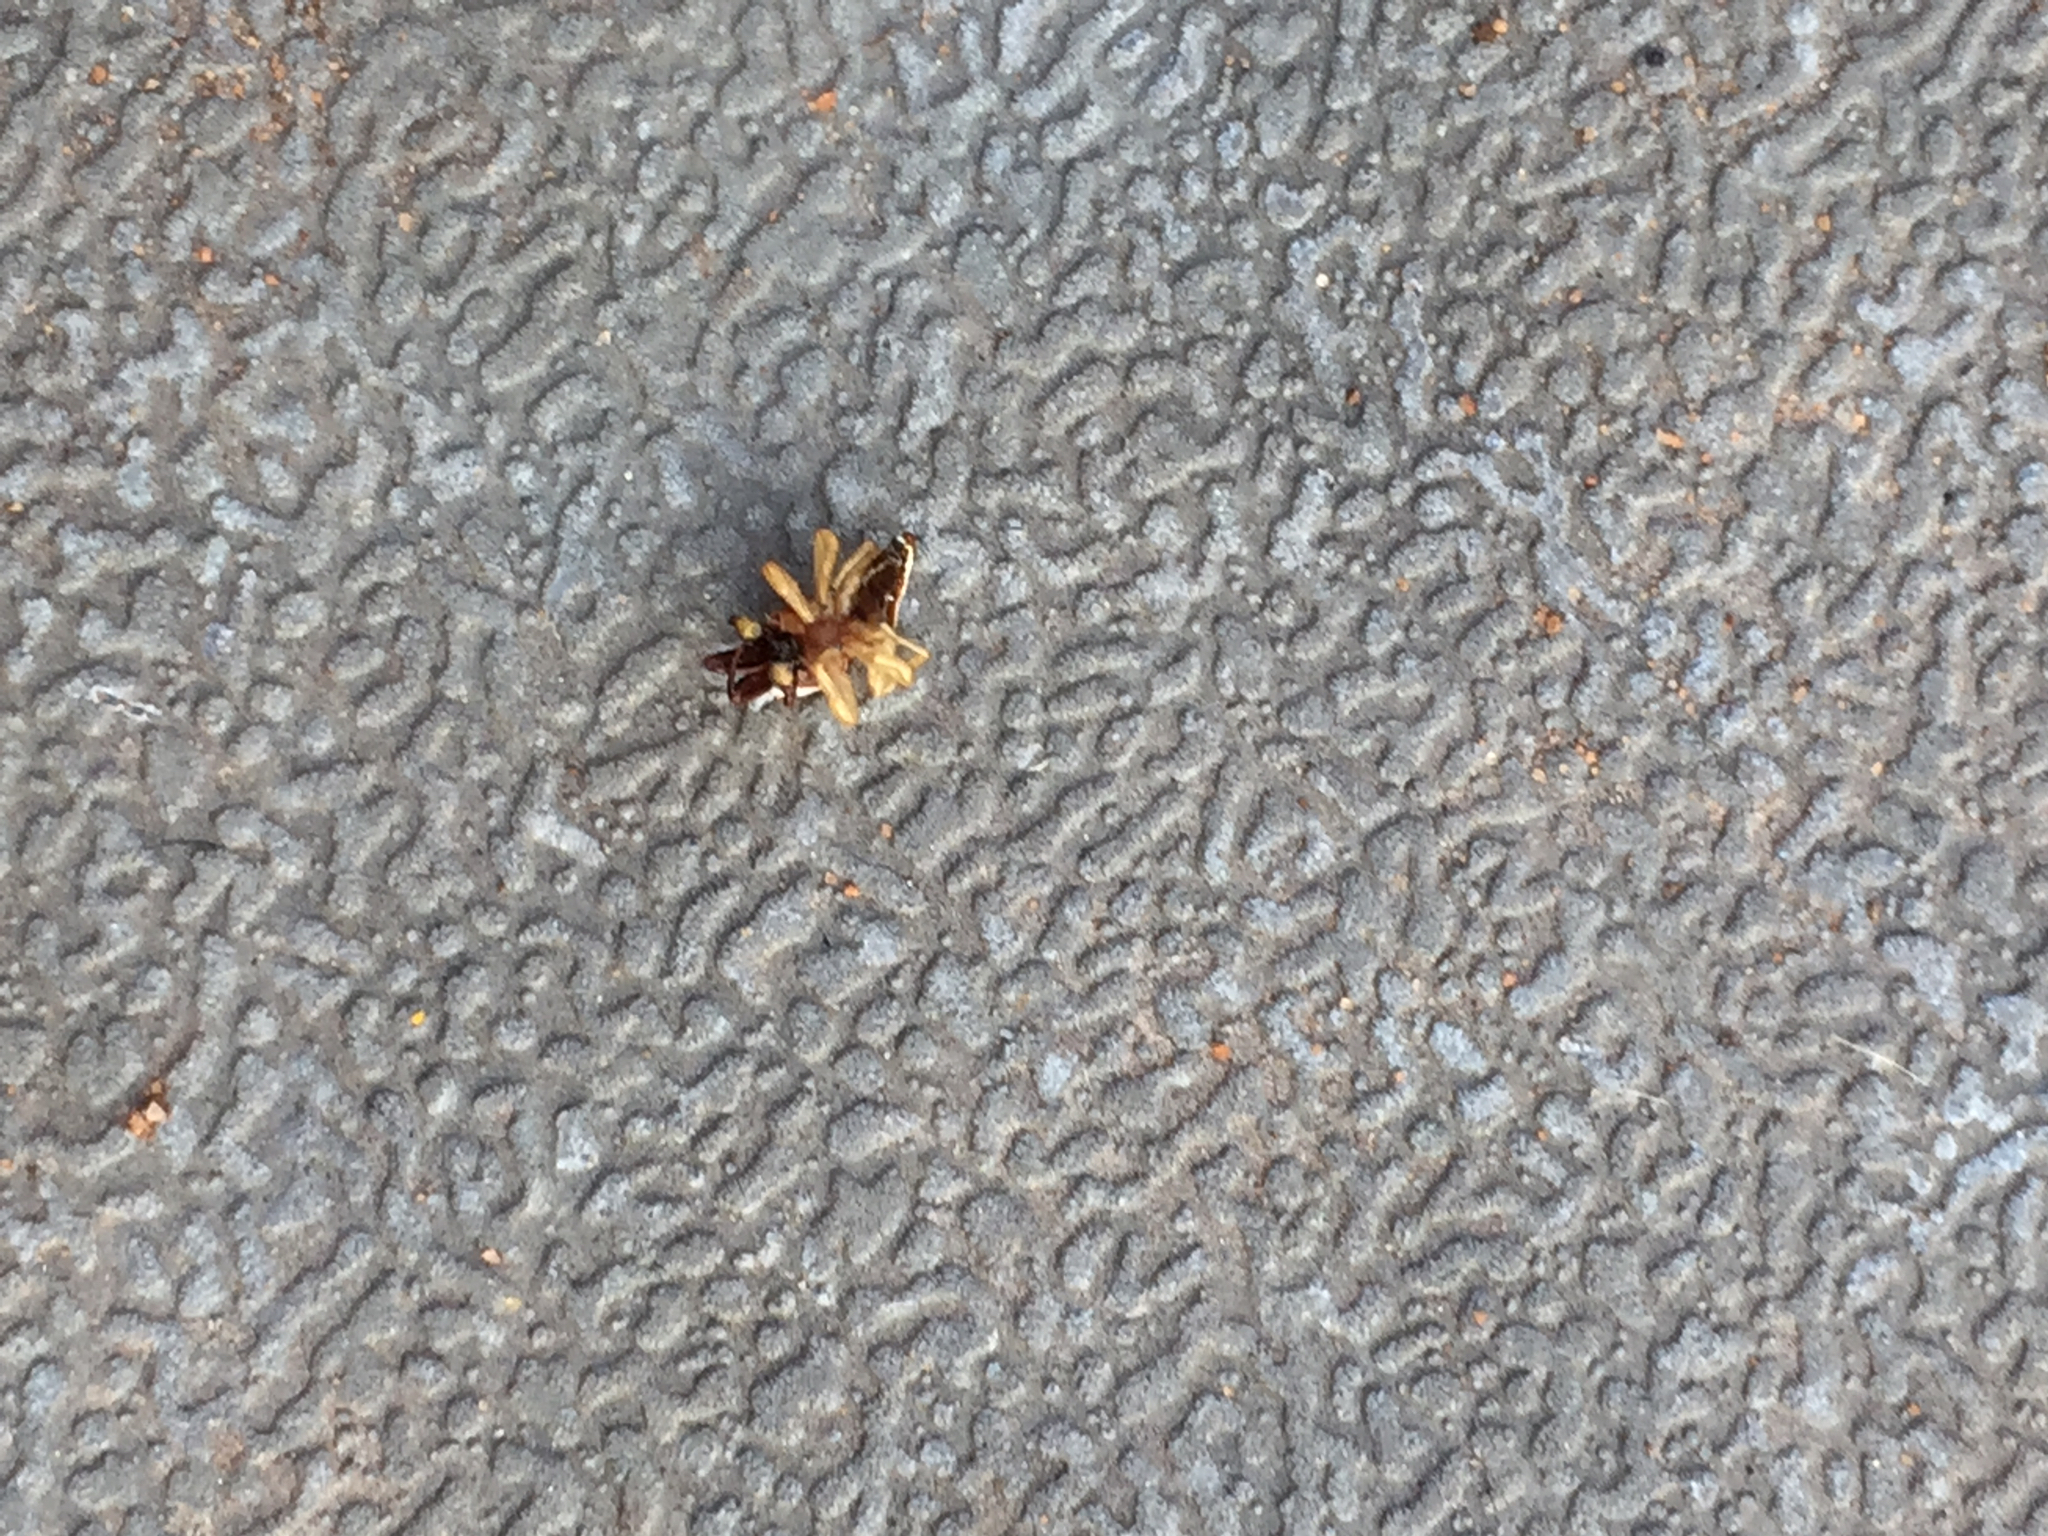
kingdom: Animalia
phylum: Arthropoda
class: Arachnida
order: Araneae
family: Salticidae
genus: Hentzia
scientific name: Hentzia palmarum
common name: Common hentz jumping spider
